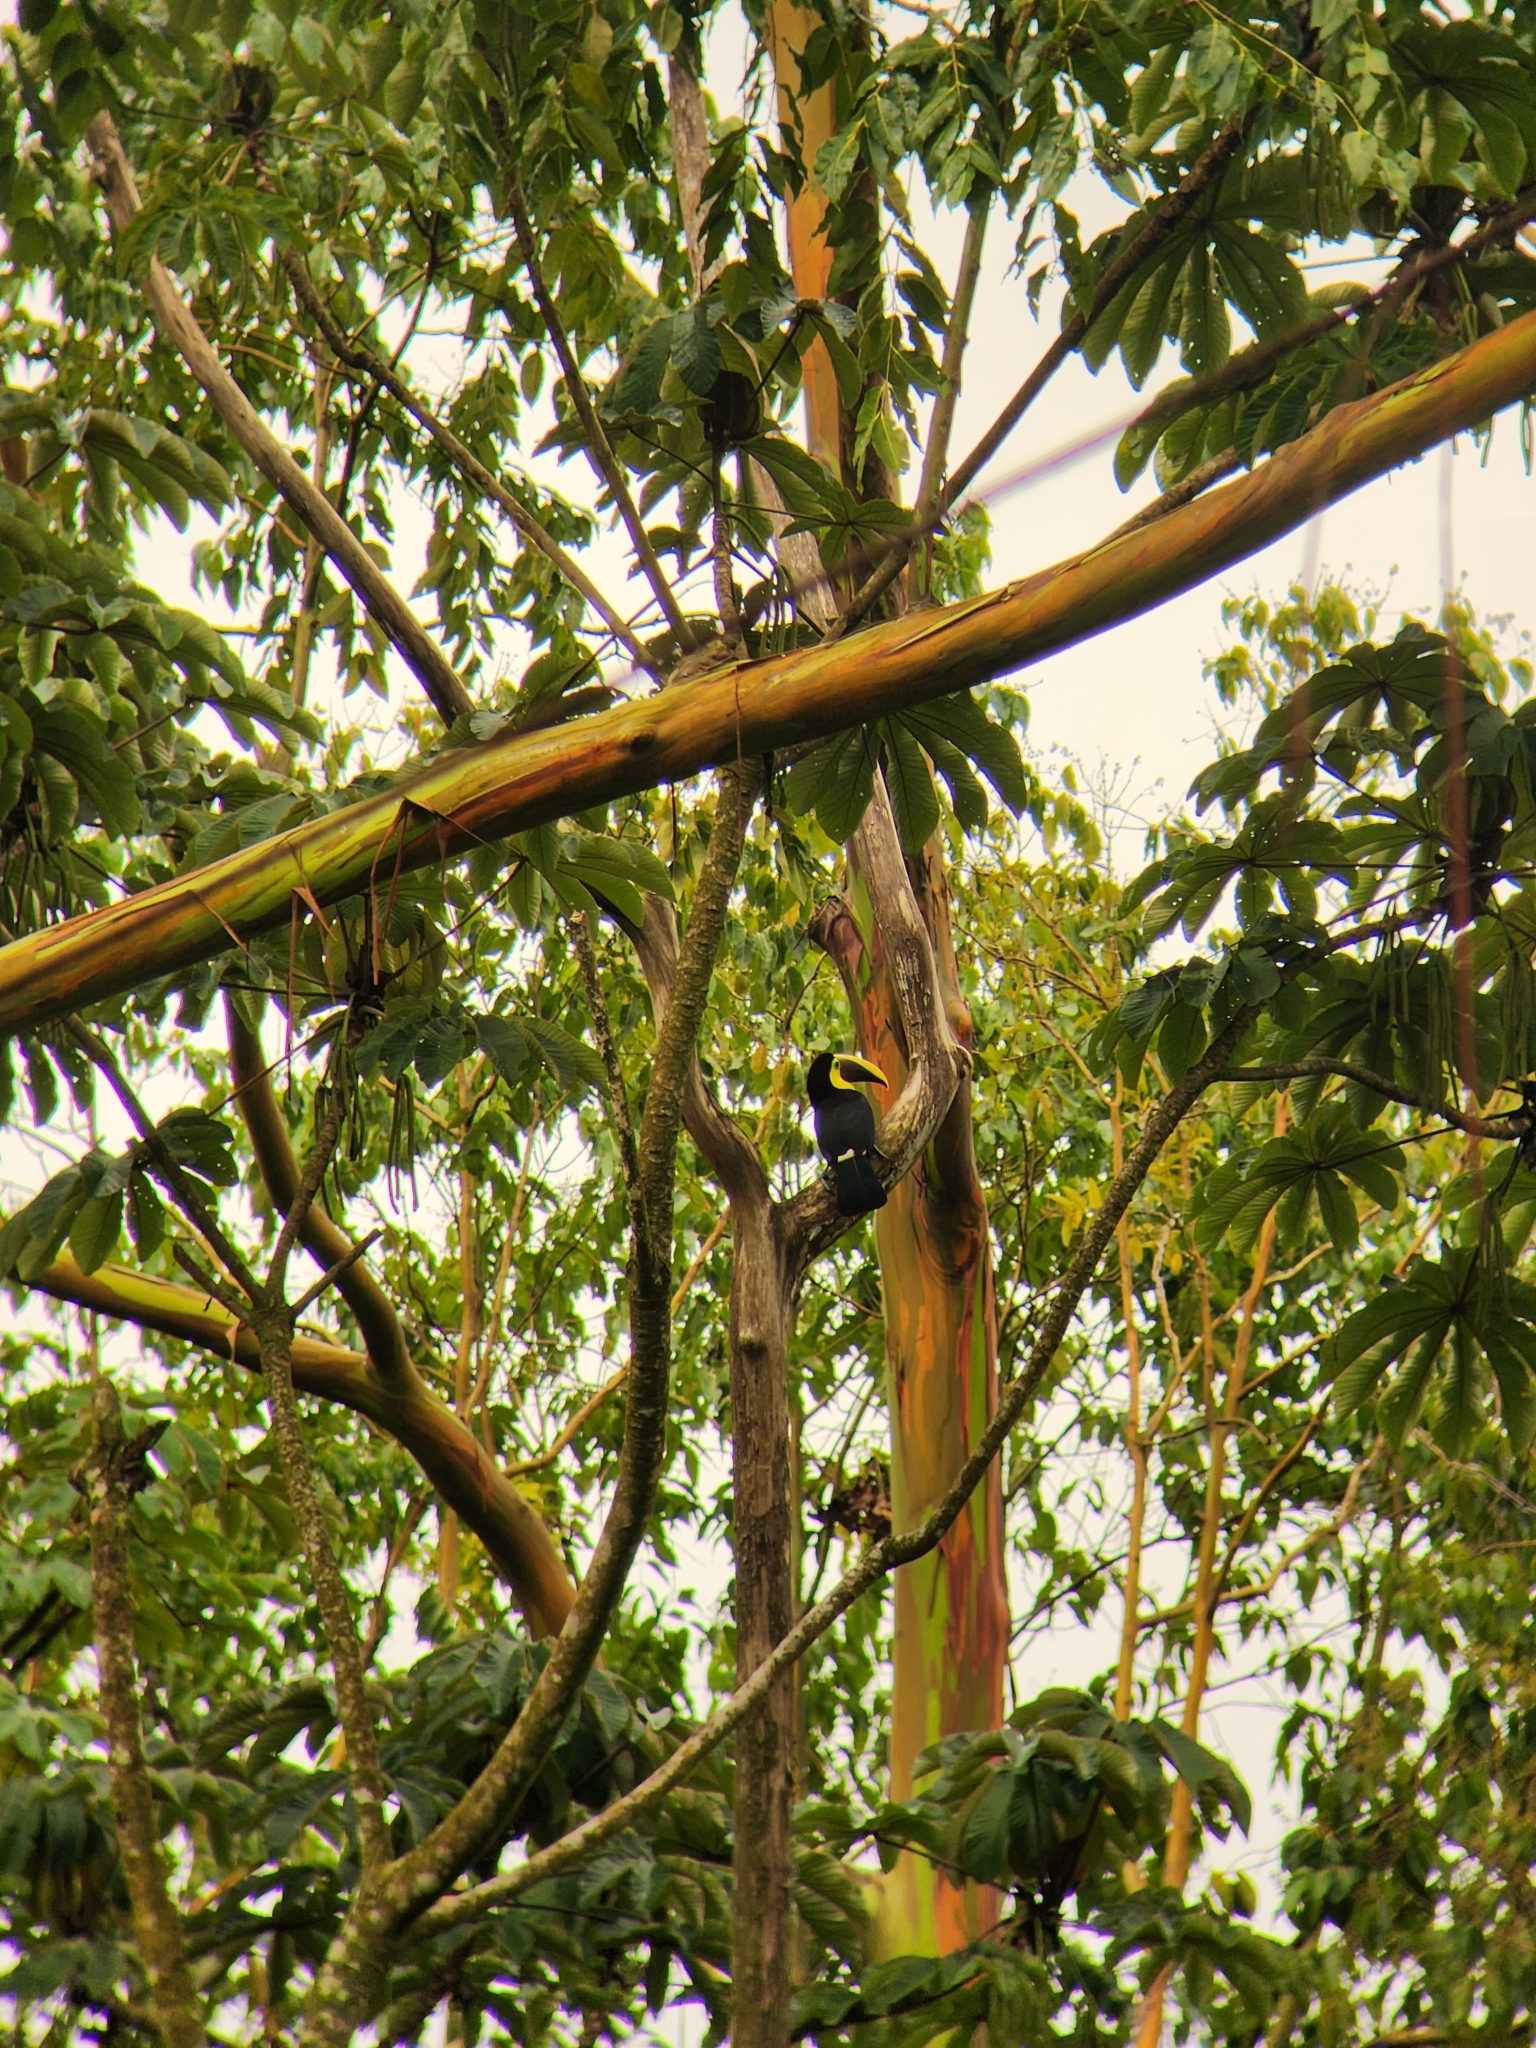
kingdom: Animalia
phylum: Chordata
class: Aves
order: Piciformes
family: Ramphastidae
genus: Ramphastos
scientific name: Ramphastos ambiguus
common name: Yellow-throated toucan
